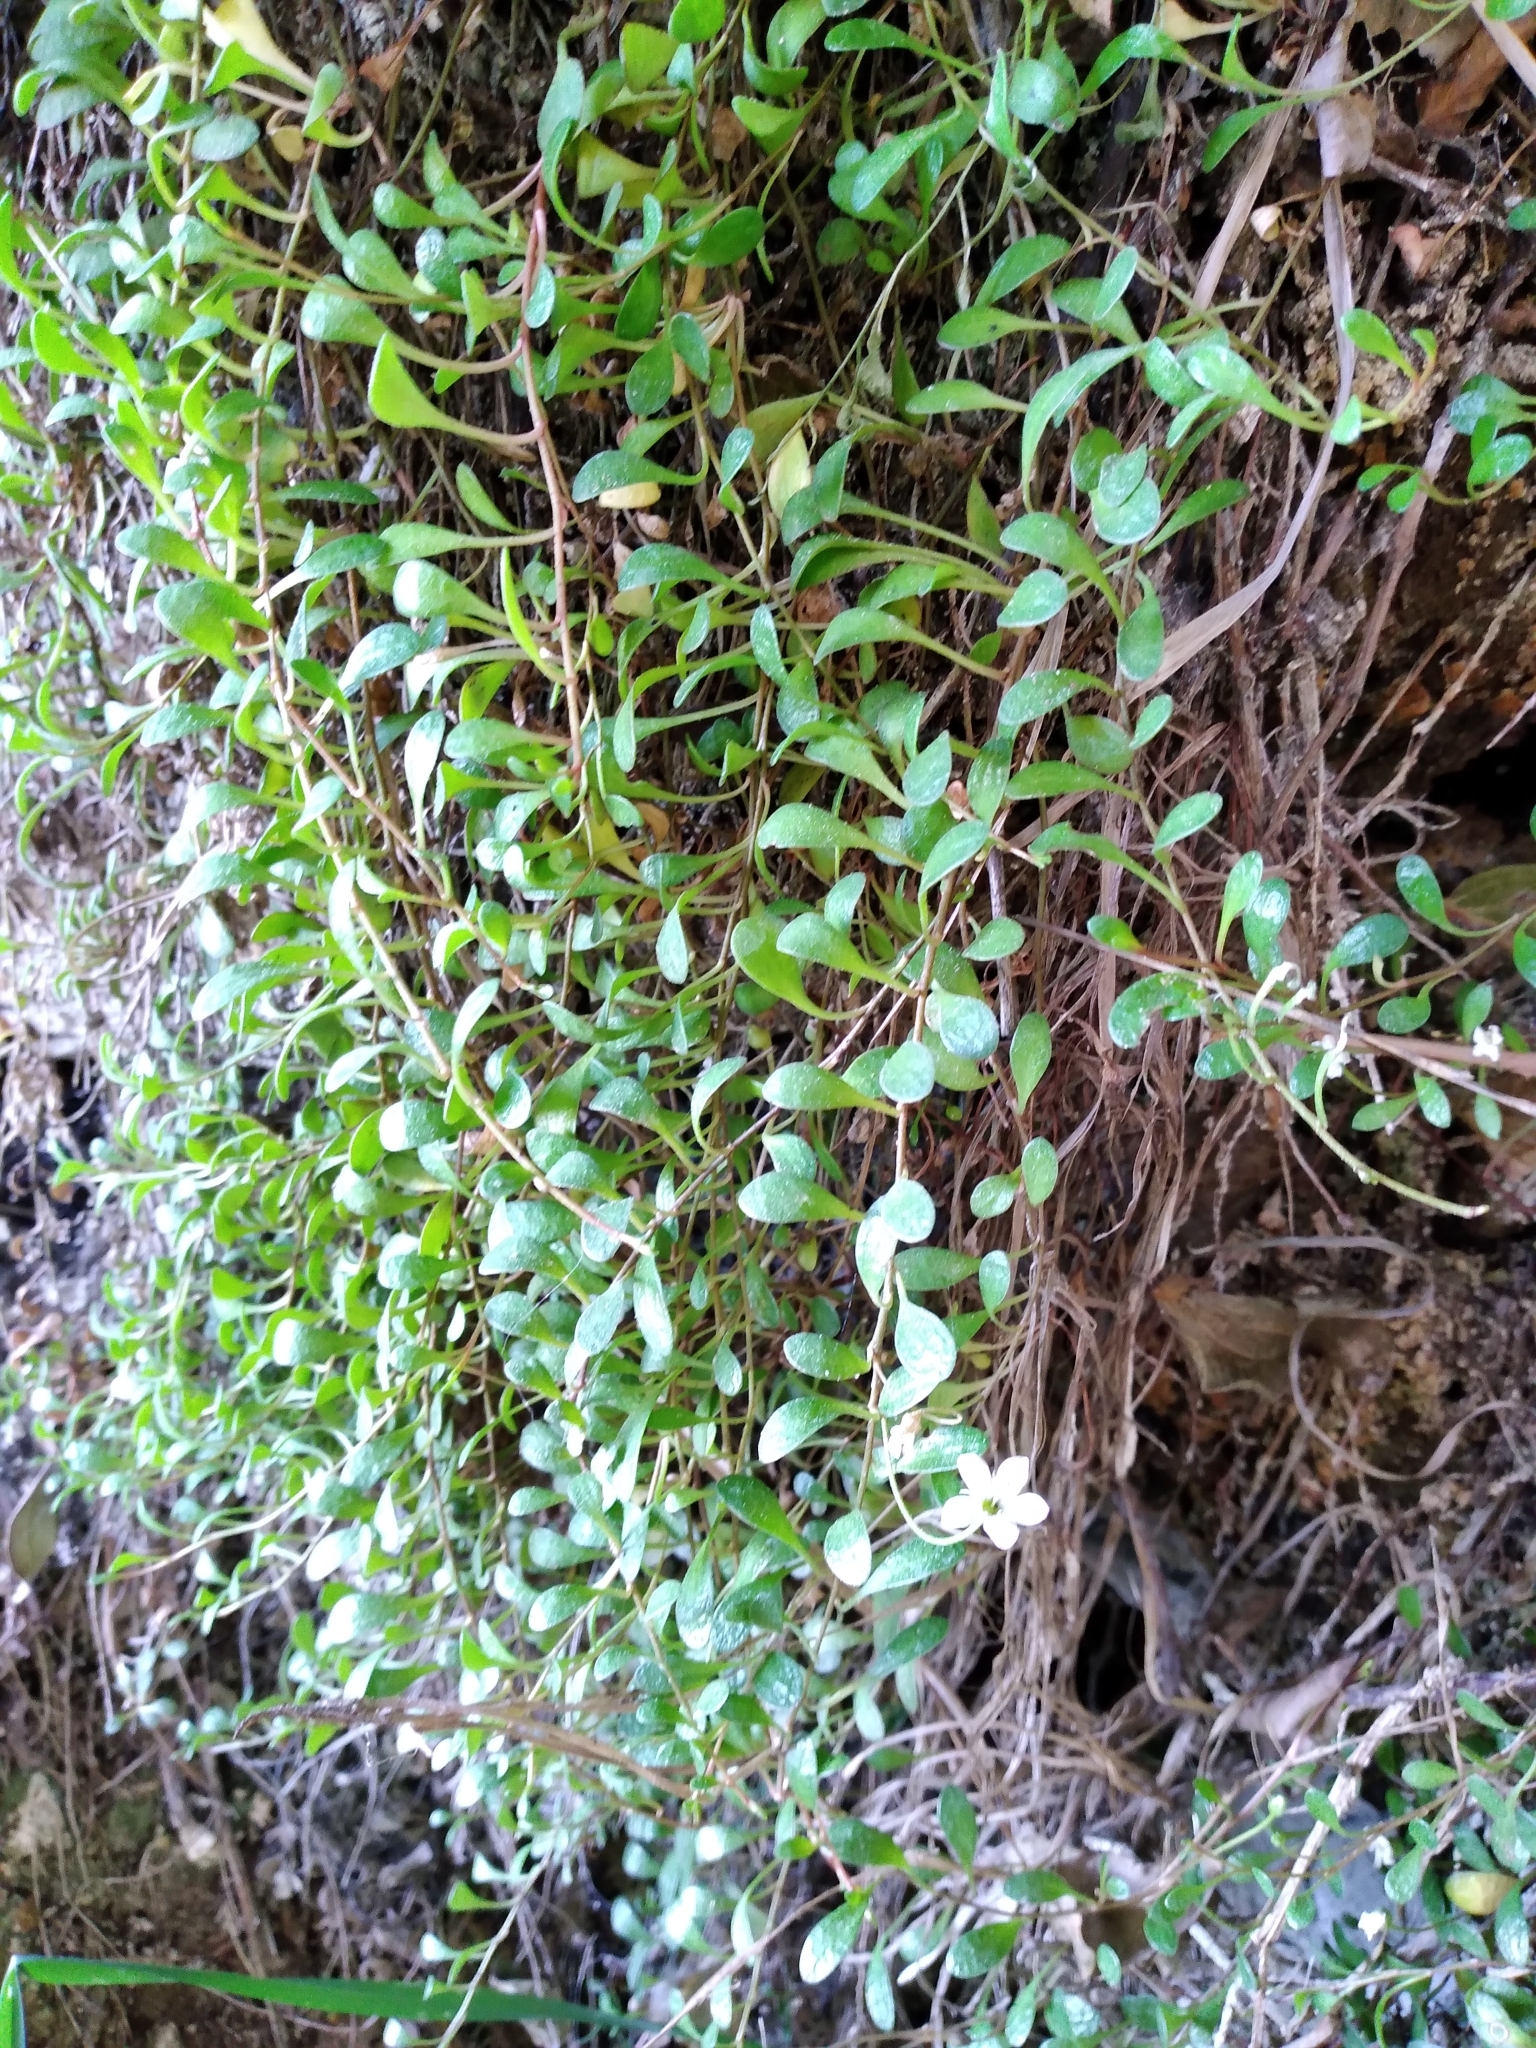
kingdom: Plantae
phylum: Tracheophyta
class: Magnoliopsida
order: Ericales
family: Primulaceae
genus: Samolus
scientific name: Samolus repens
